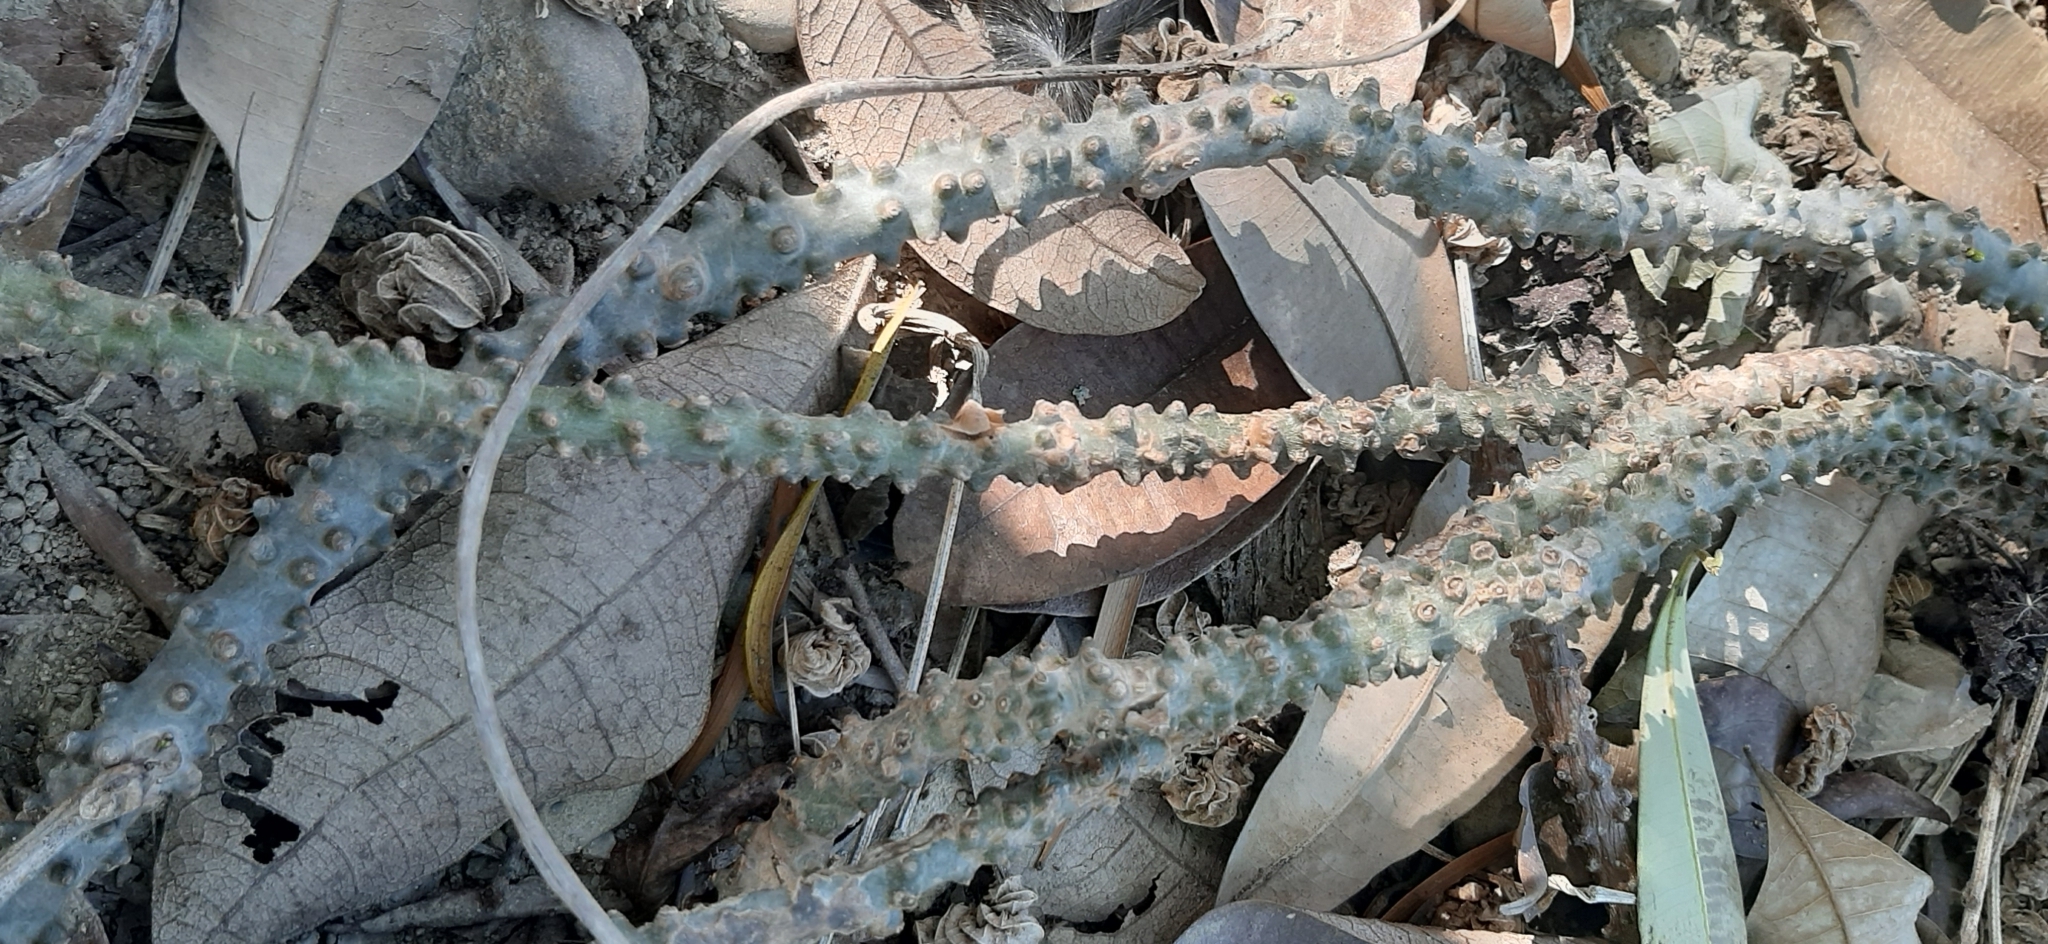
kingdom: Plantae
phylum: Tracheophyta
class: Magnoliopsida
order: Ranunculales
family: Menispermaceae
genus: Tinospora
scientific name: Tinospora crispa
